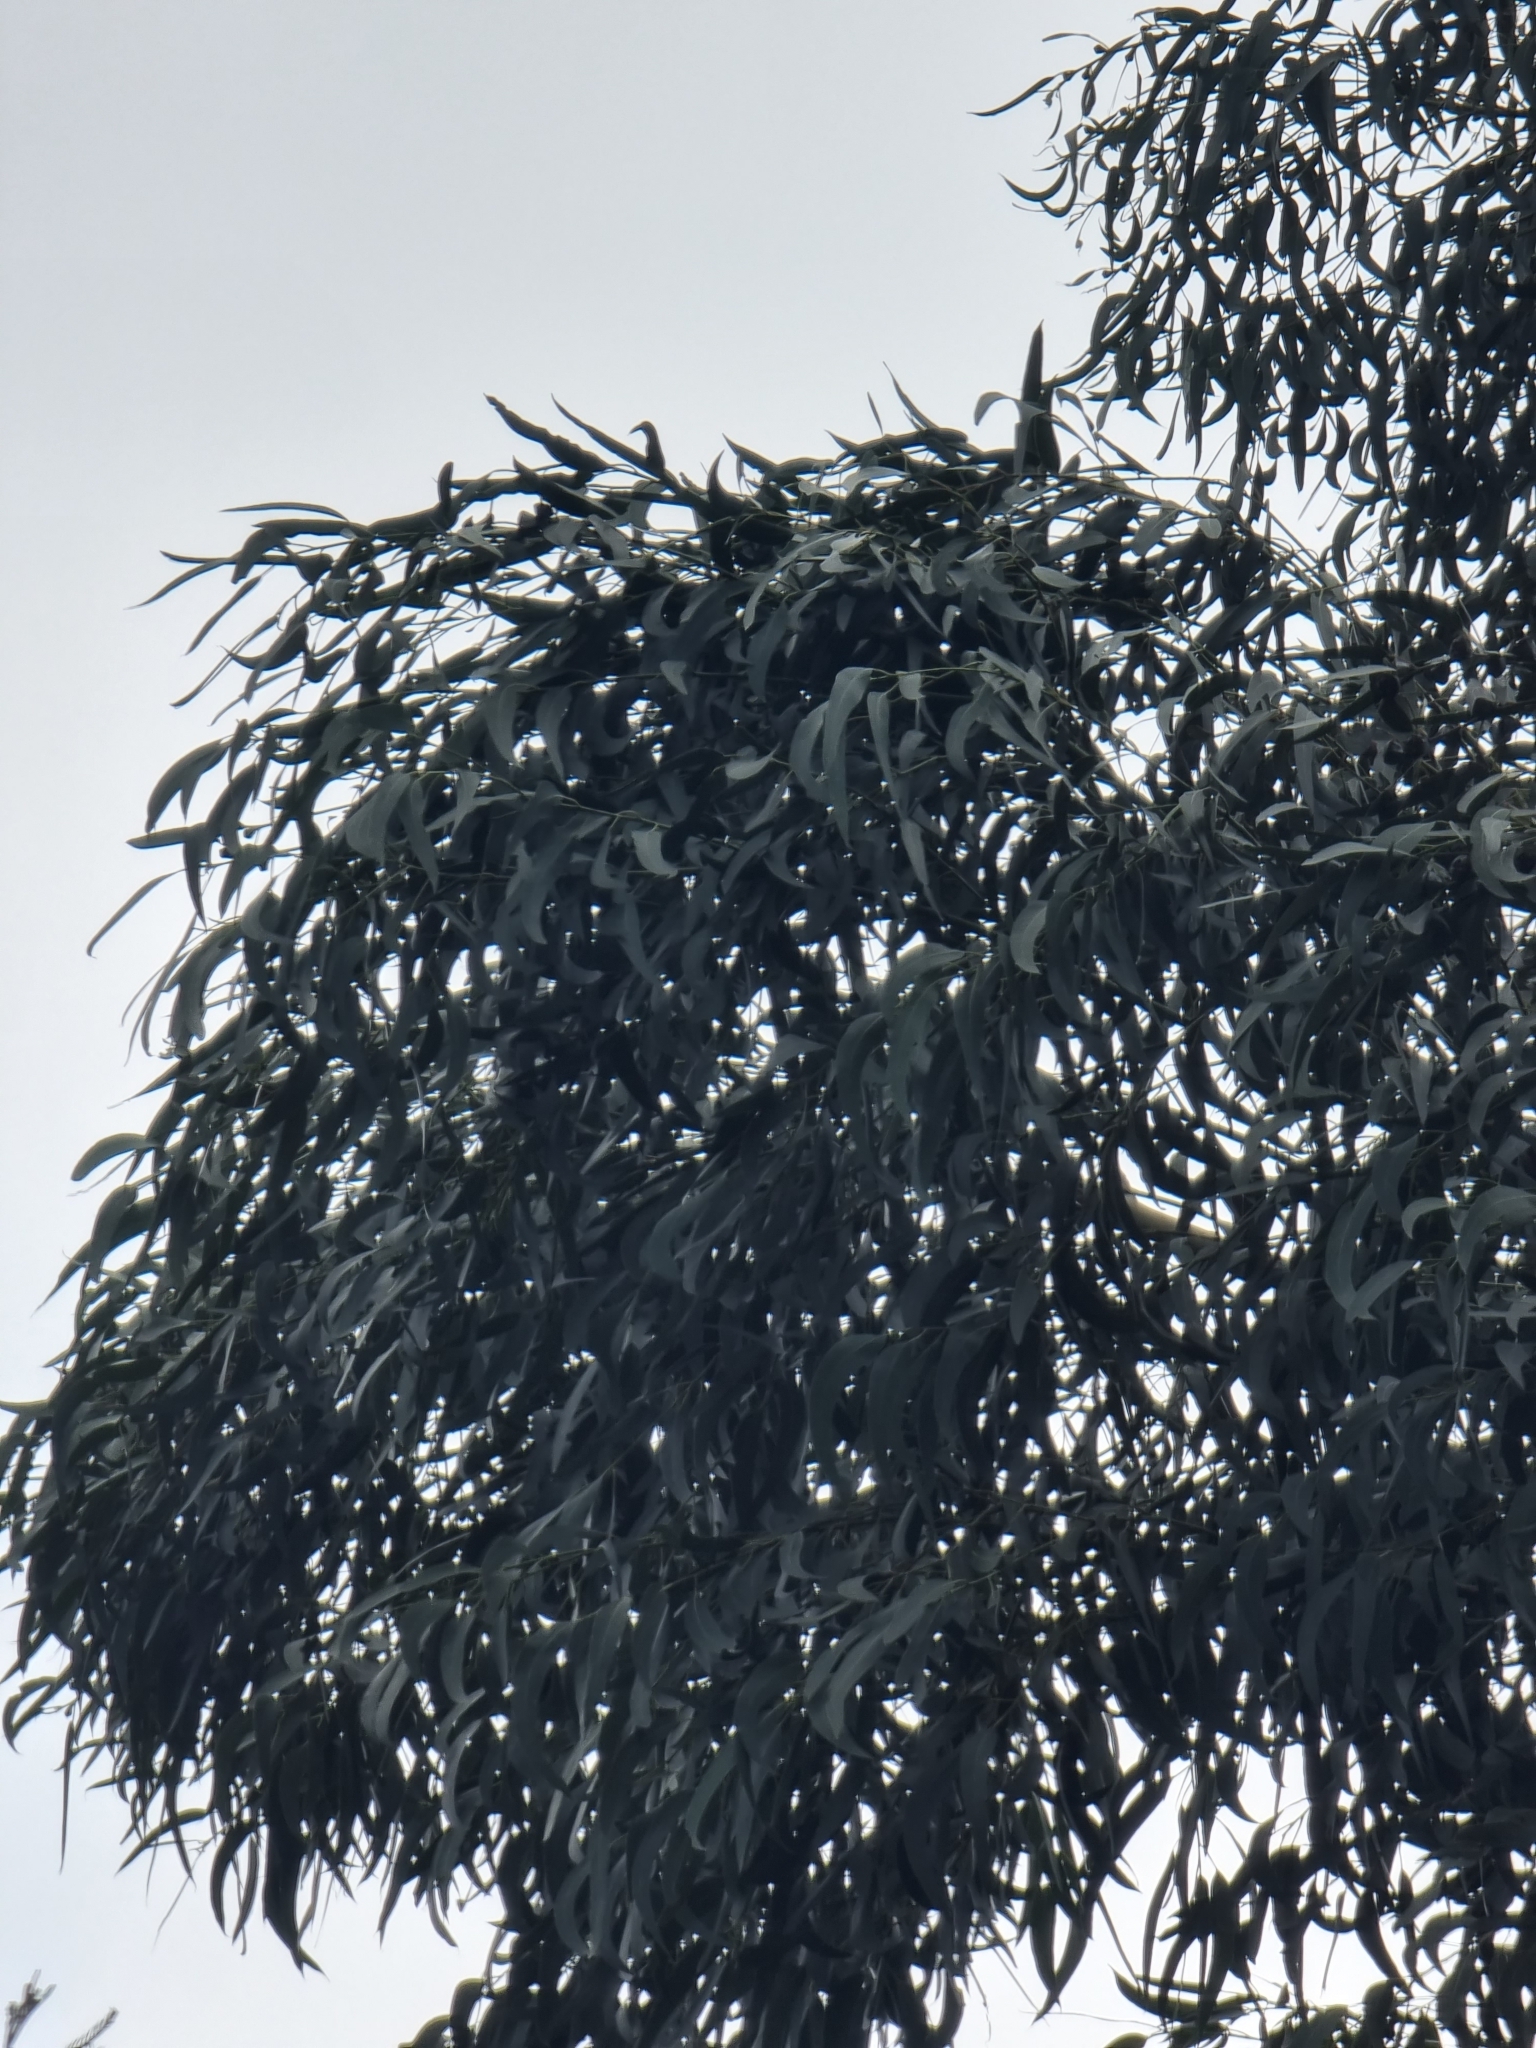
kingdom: Plantae
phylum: Tracheophyta
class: Magnoliopsida
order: Myrtales
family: Myrtaceae
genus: Eucalyptus
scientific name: Eucalyptus globulus
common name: Southern blue-gum
